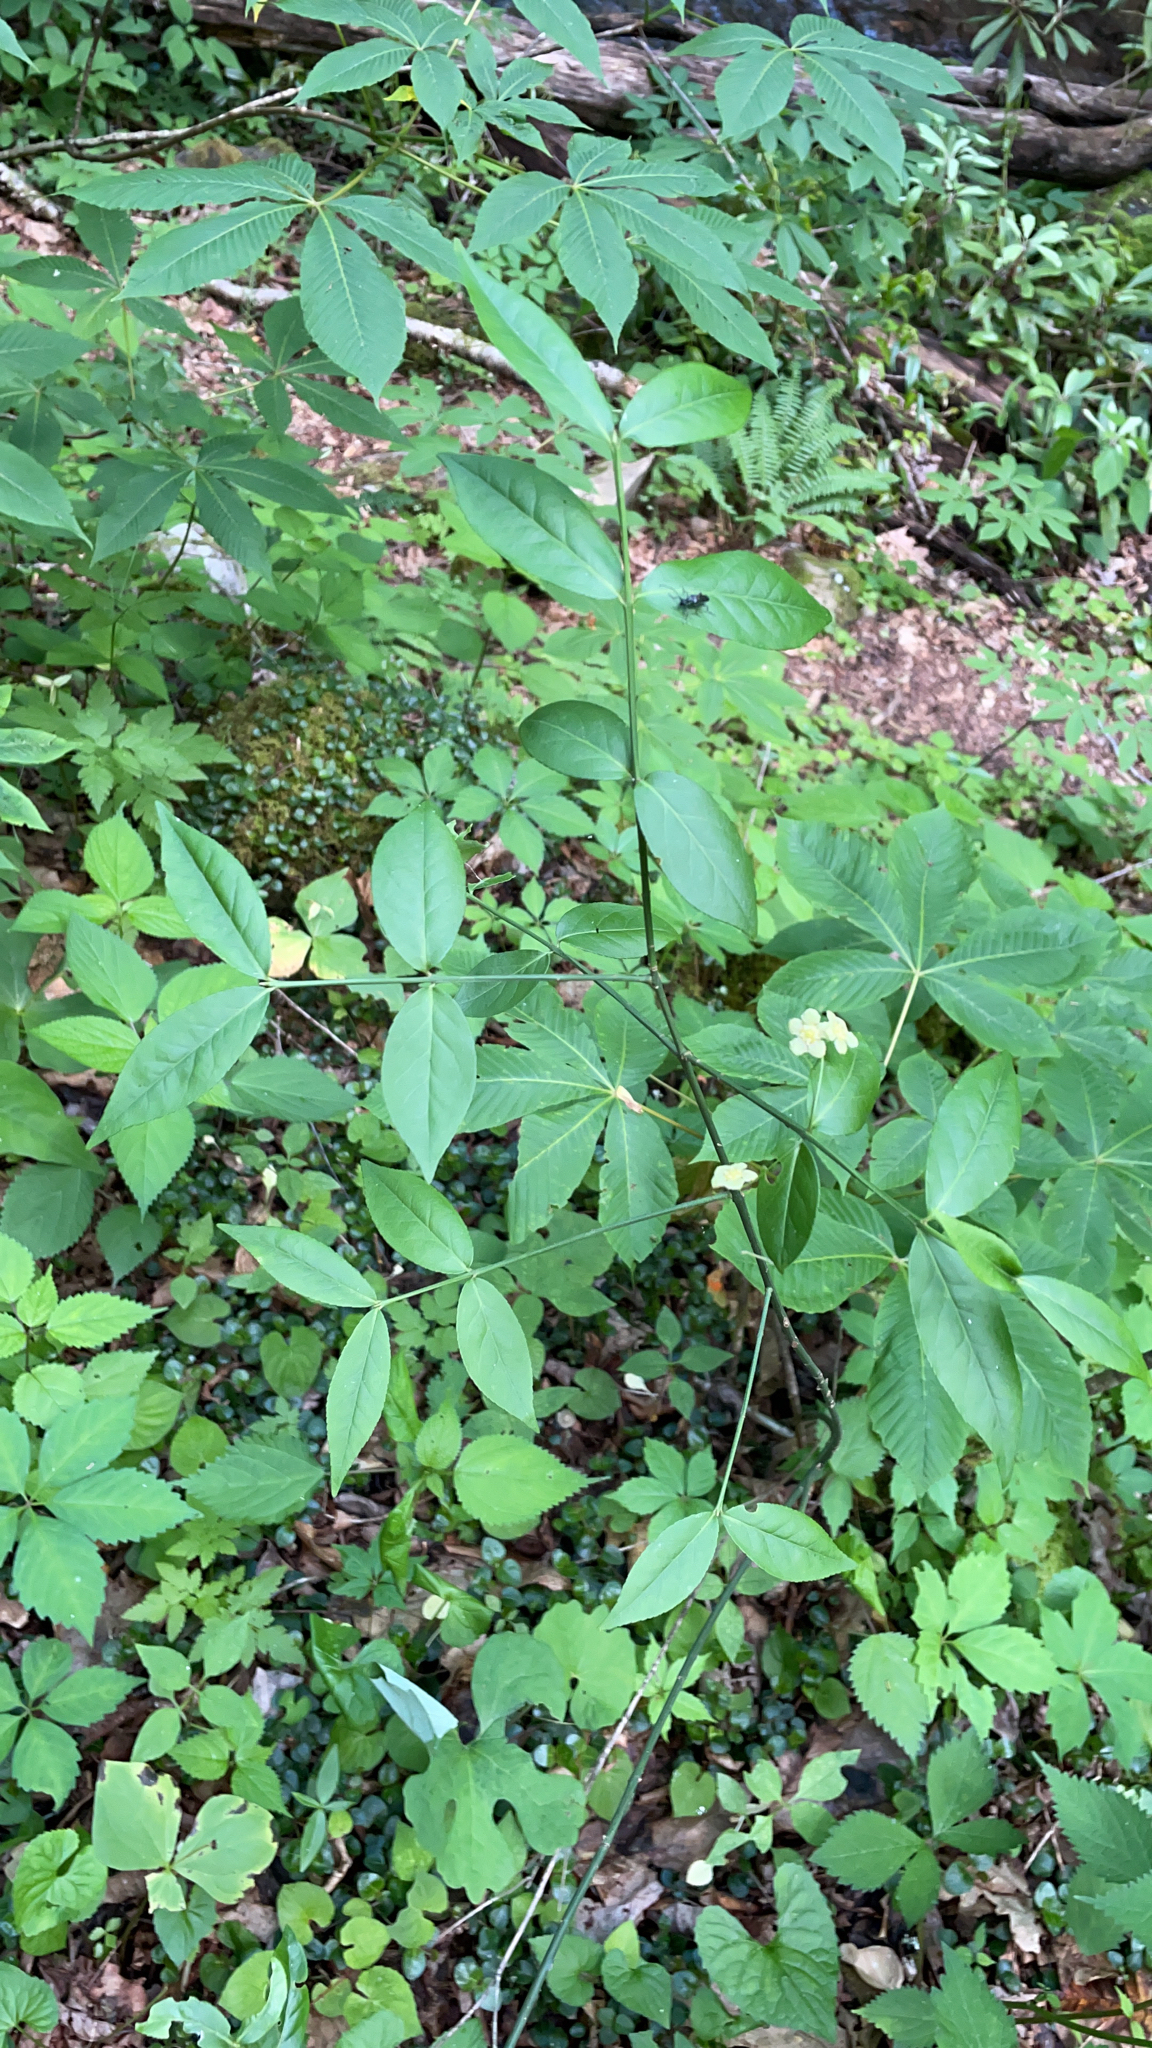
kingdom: Plantae
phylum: Tracheophyta
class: Magnoliopsida
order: Celastrales
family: Celastraceae
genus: Euonymus
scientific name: Euonymus americanus
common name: Bursting-heart
